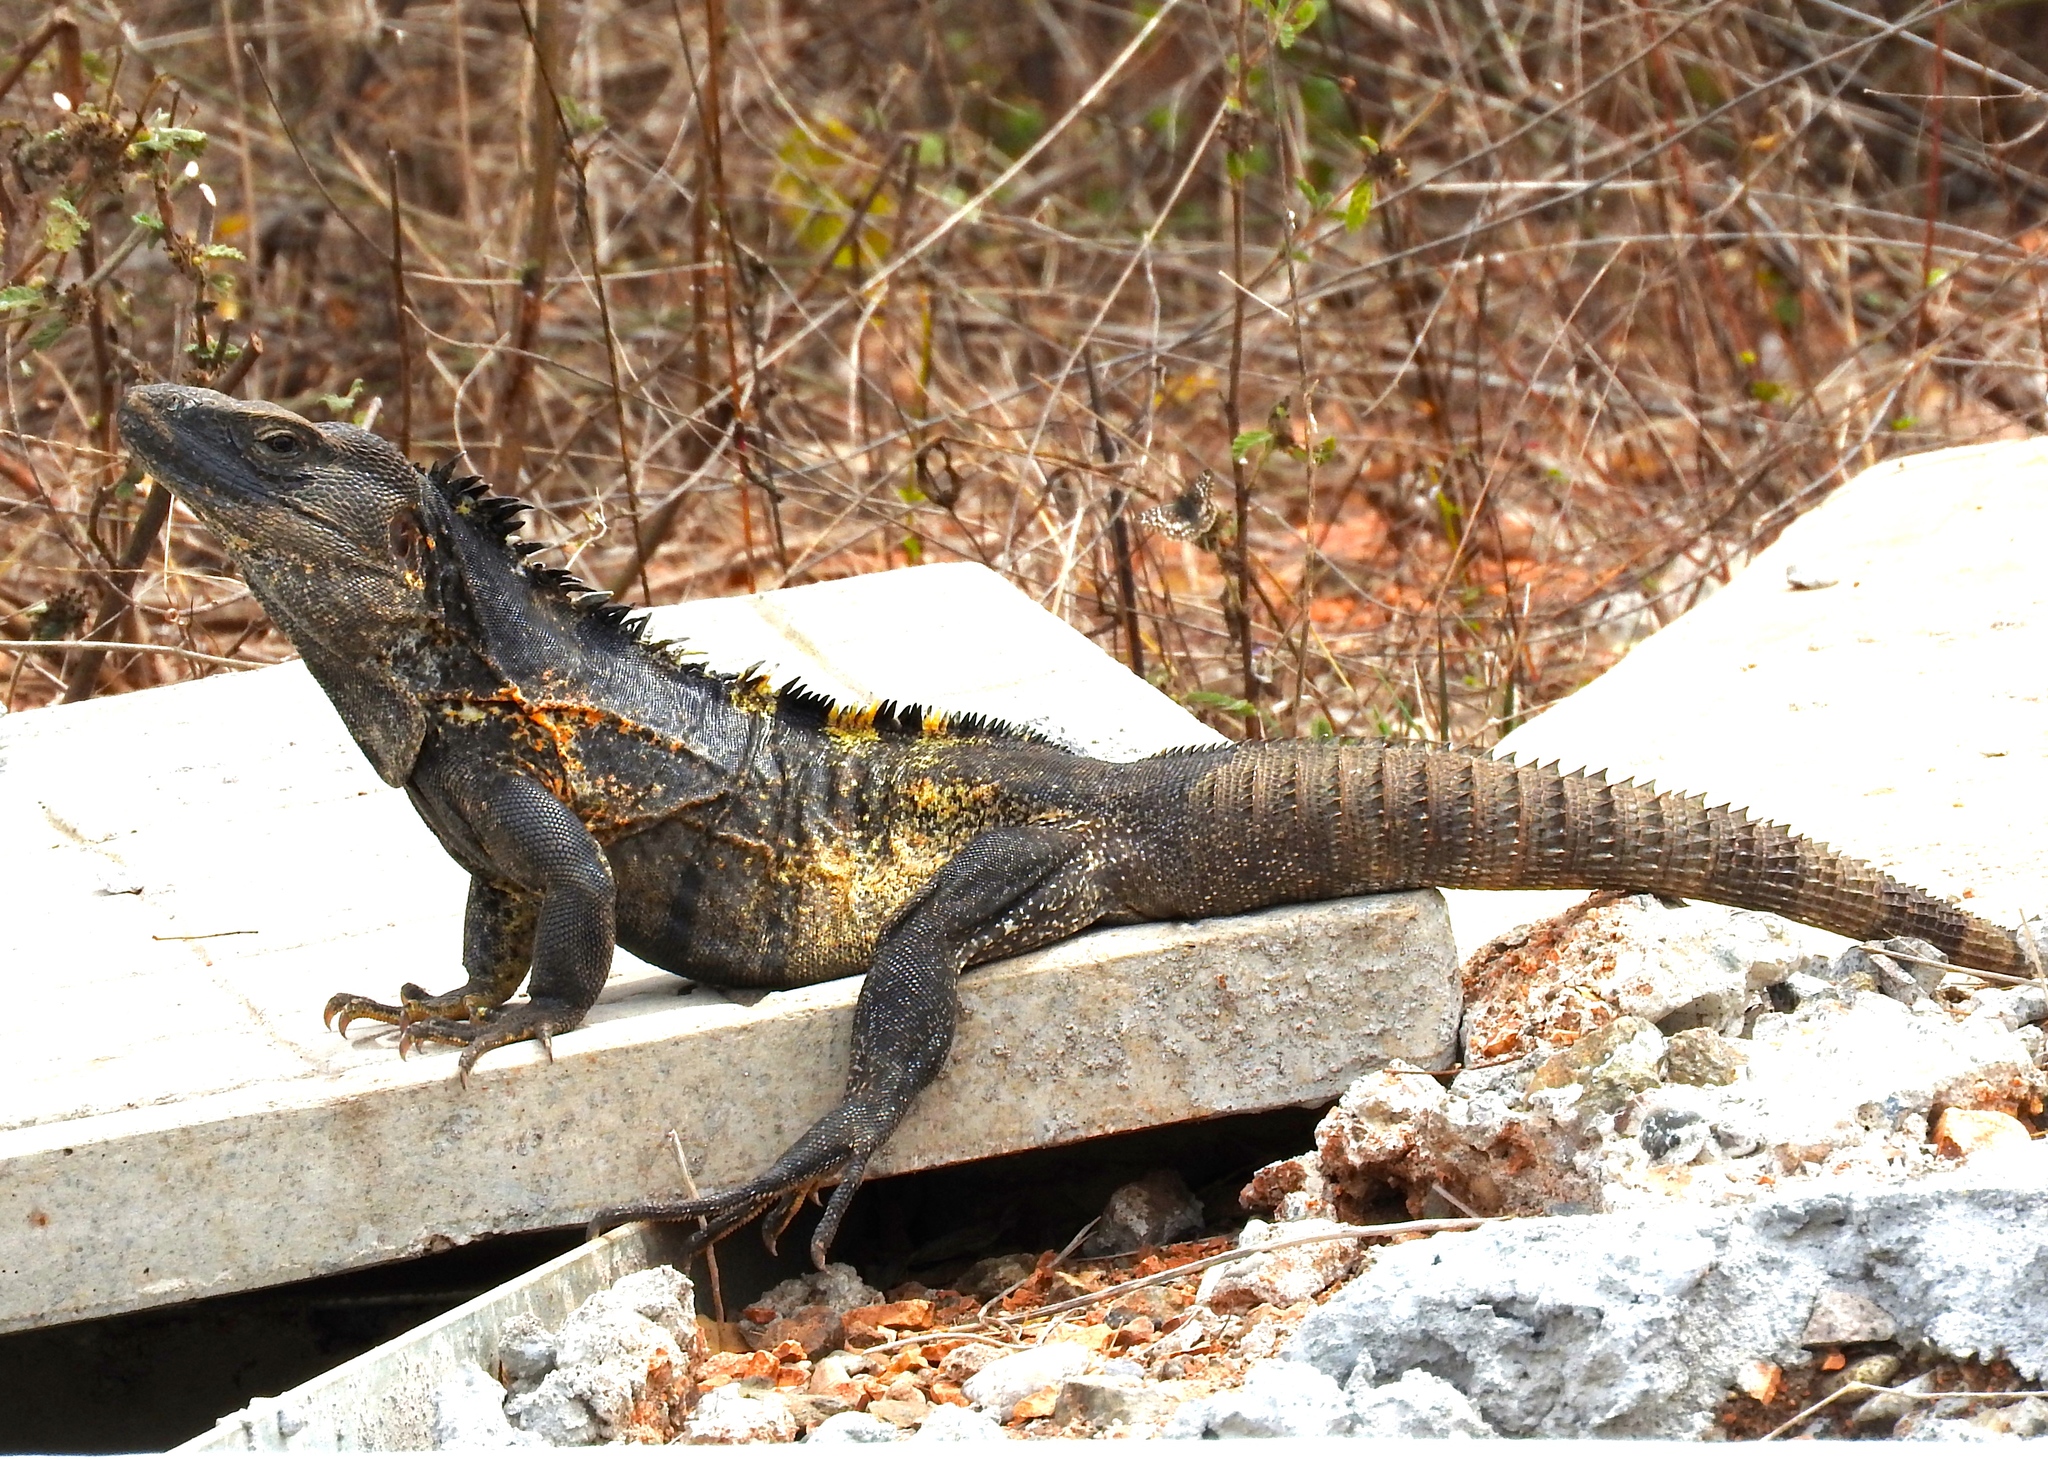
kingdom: Animalia
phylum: Chordata
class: Squamata
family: Iguanidae
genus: Ctenosaura
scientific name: Ctenosaura pectinata
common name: Guerreran spiny-tailed iguana
